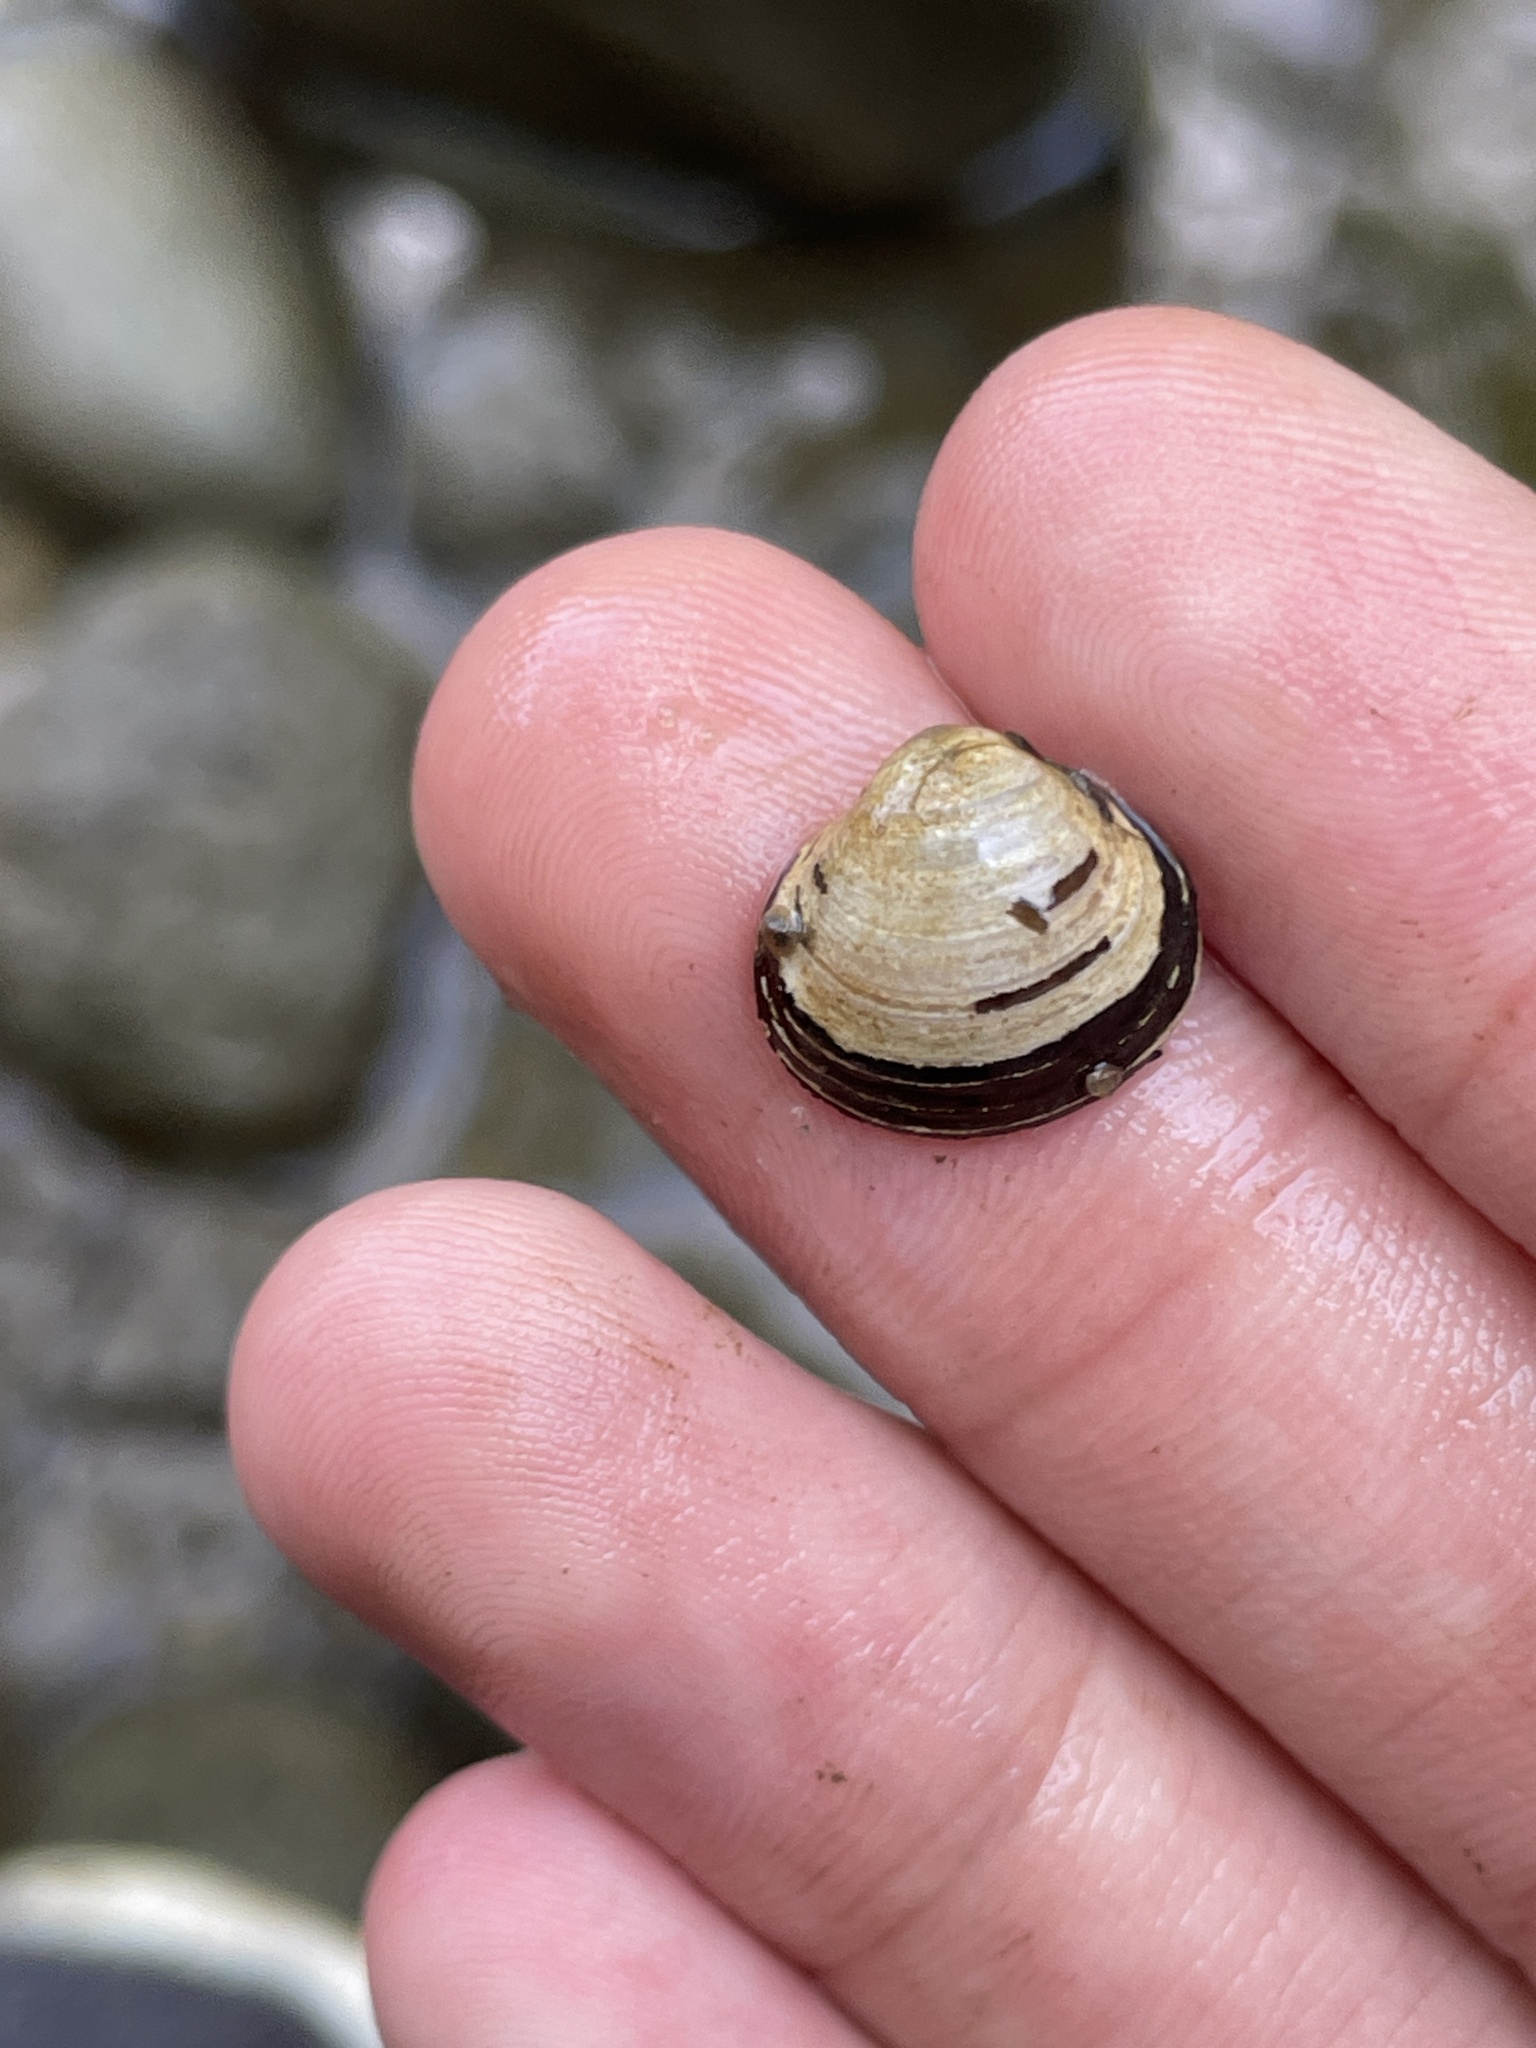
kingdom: Animalia
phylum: Mollusca
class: Bivalvia
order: Venerida
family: Cyrenidae
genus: Corbicula
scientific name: Corbicula fluminea
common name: Asian clam
